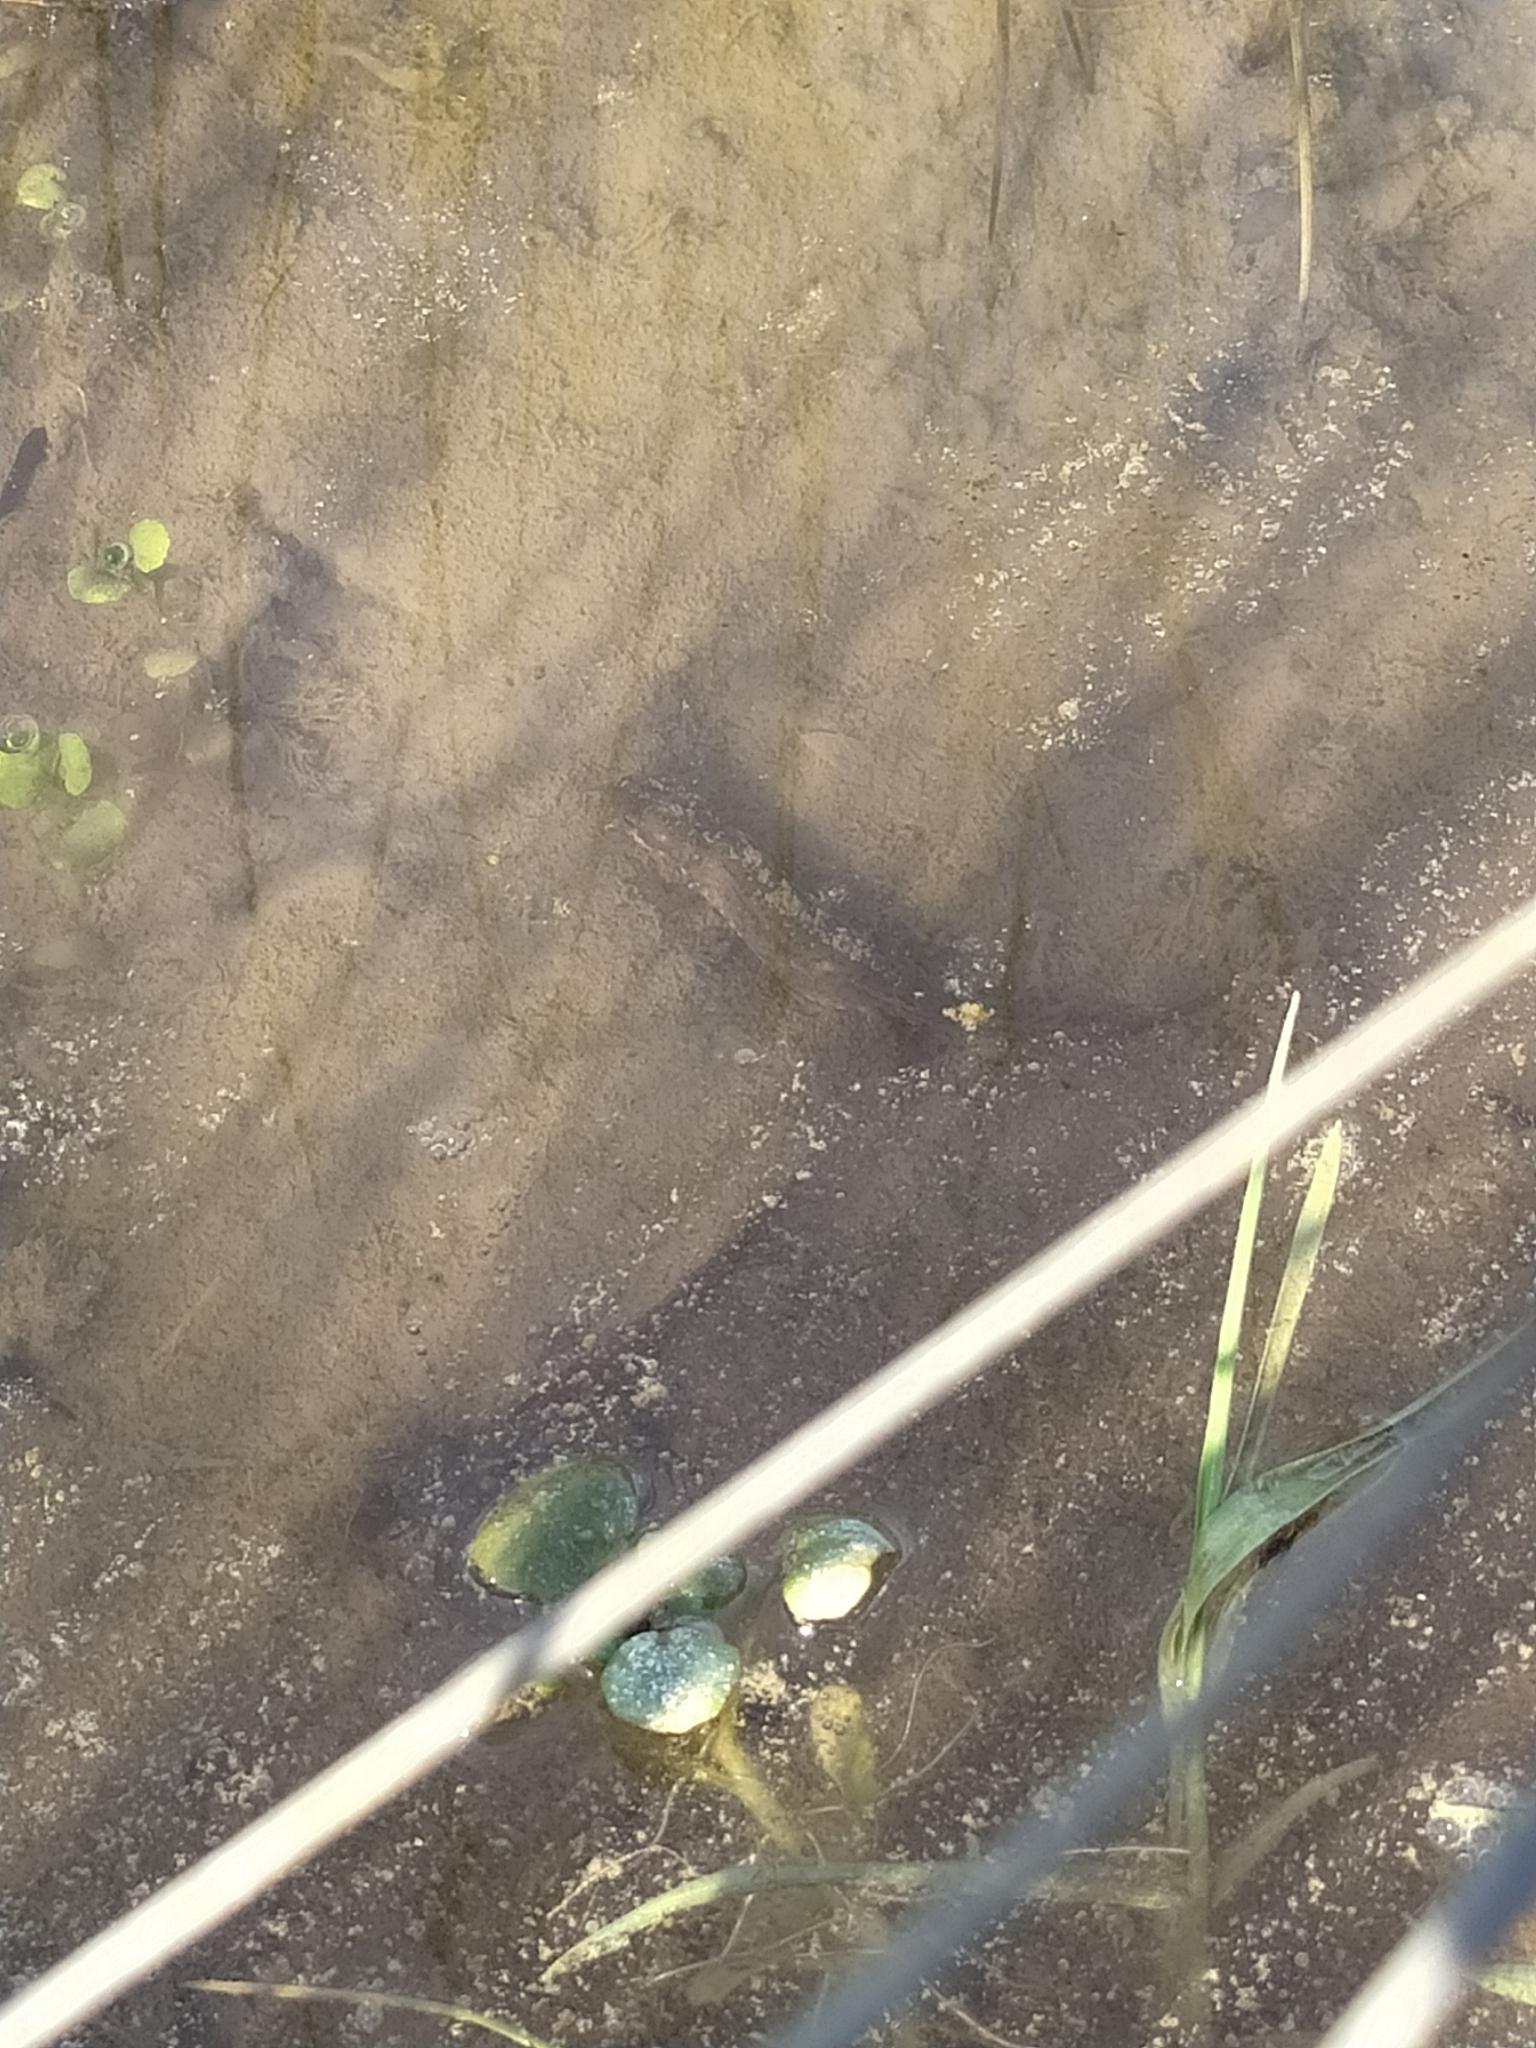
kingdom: Animalia
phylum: Chordata
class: Amphibia
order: Caudata
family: Salamandridae
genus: Lissotriton
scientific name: Lissotriton italicus
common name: Italian newt
